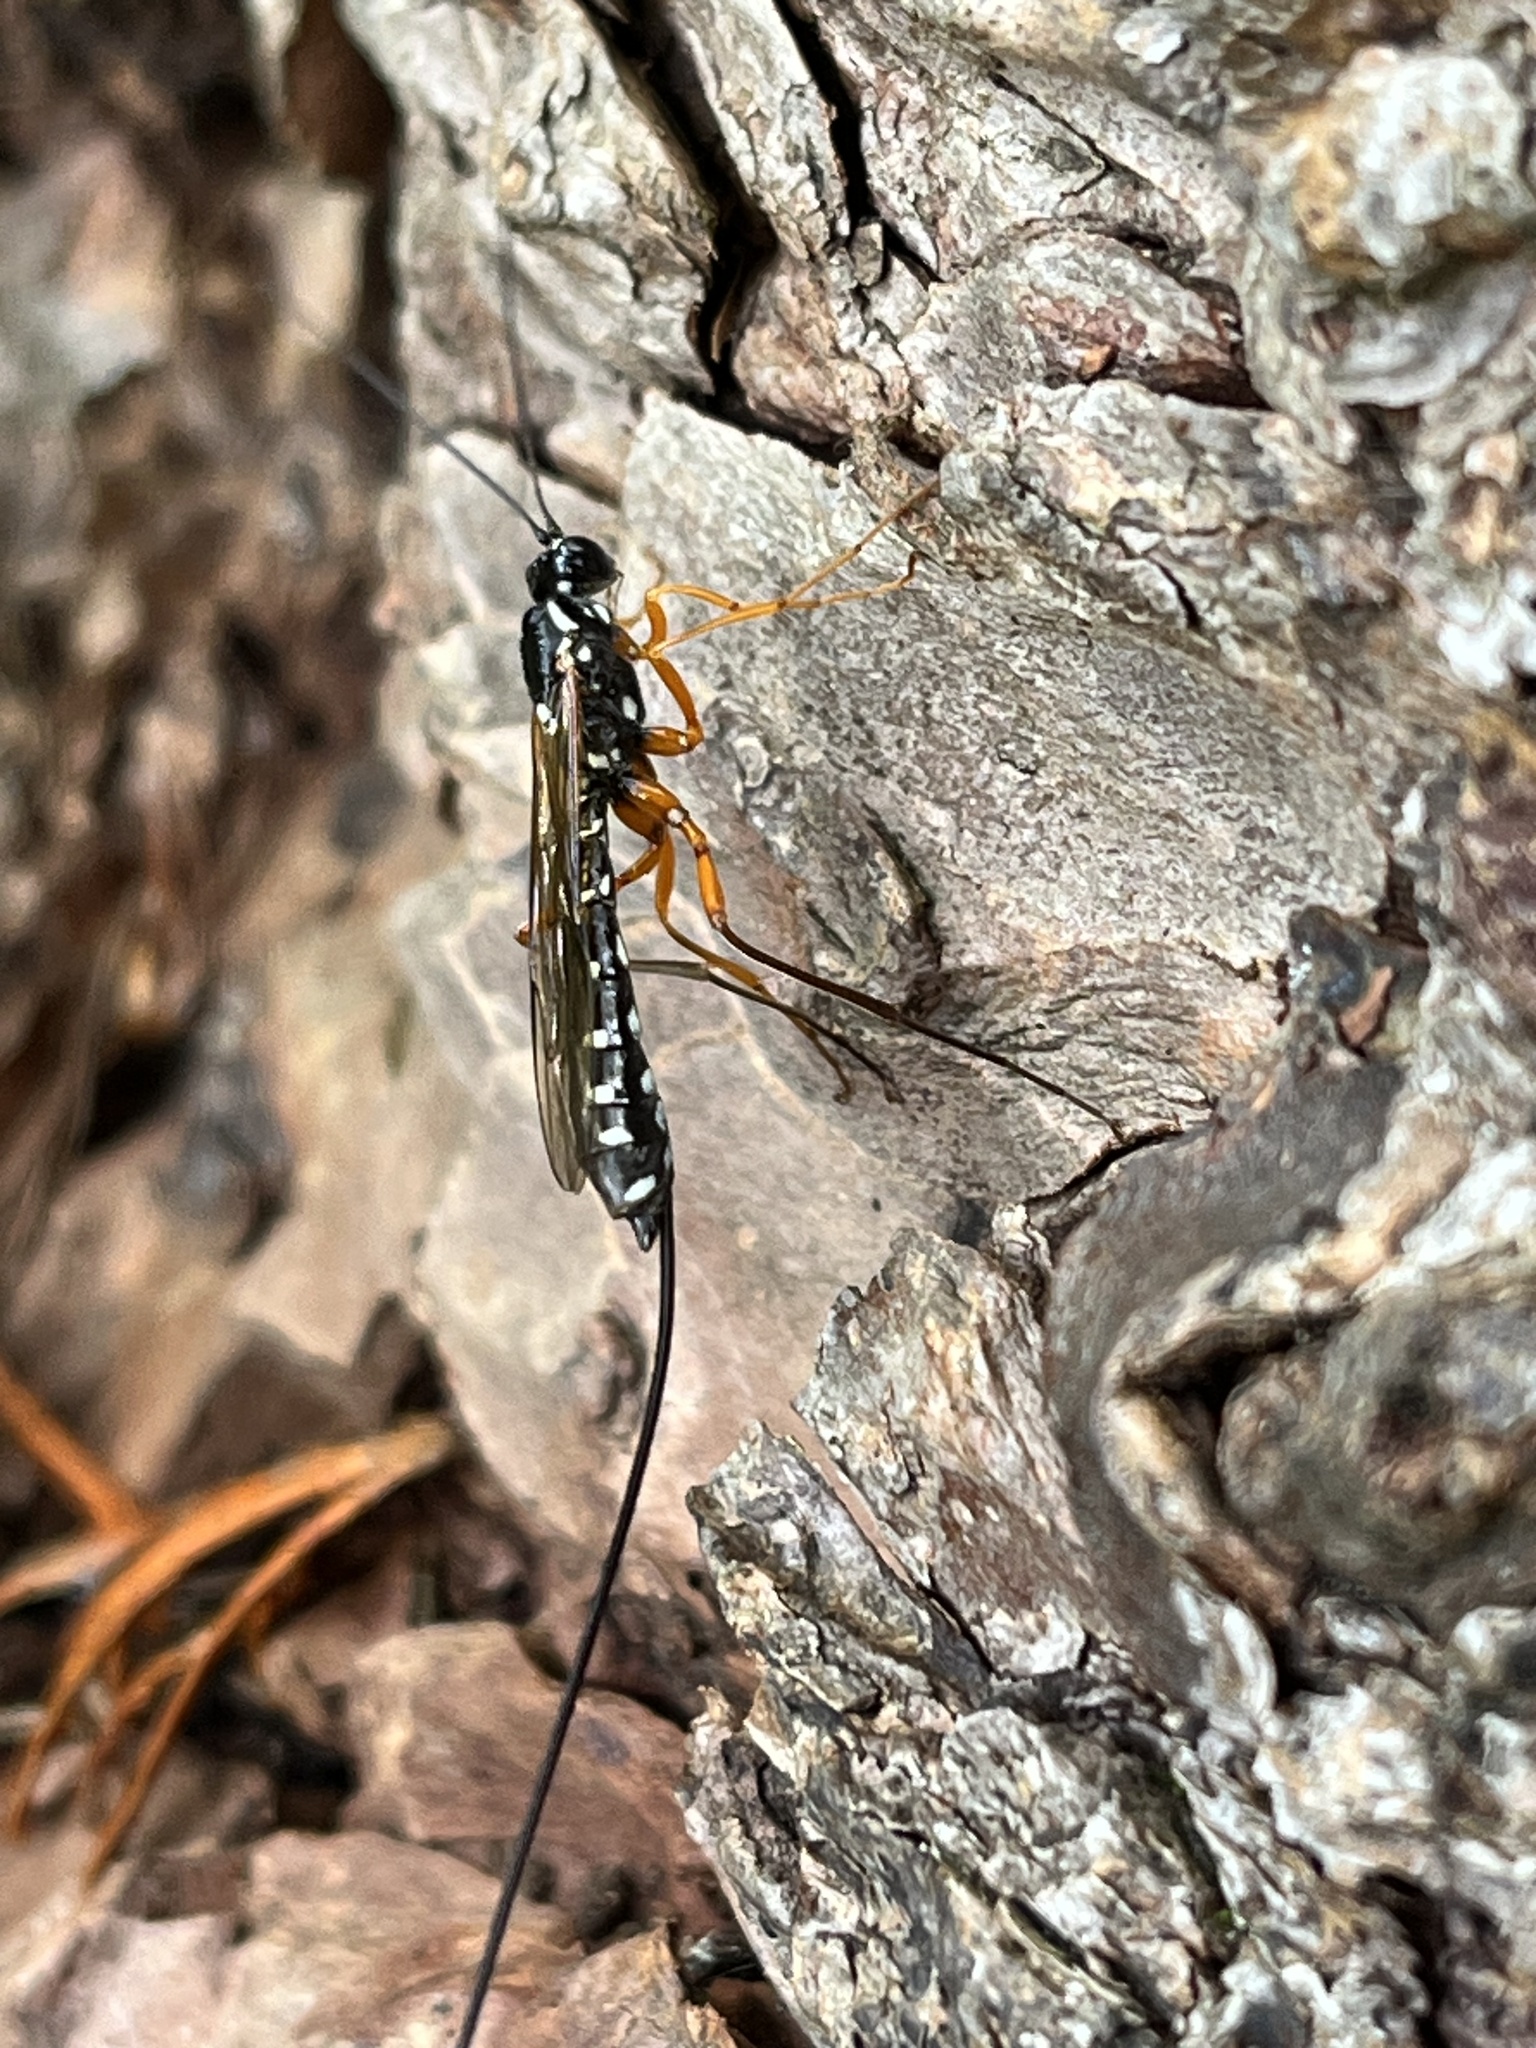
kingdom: Animalia
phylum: Arthropoda
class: Insecta
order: Hymenoptera
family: Ichneumonidae
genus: Rhyssa
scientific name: Rhyssa persuasoria
